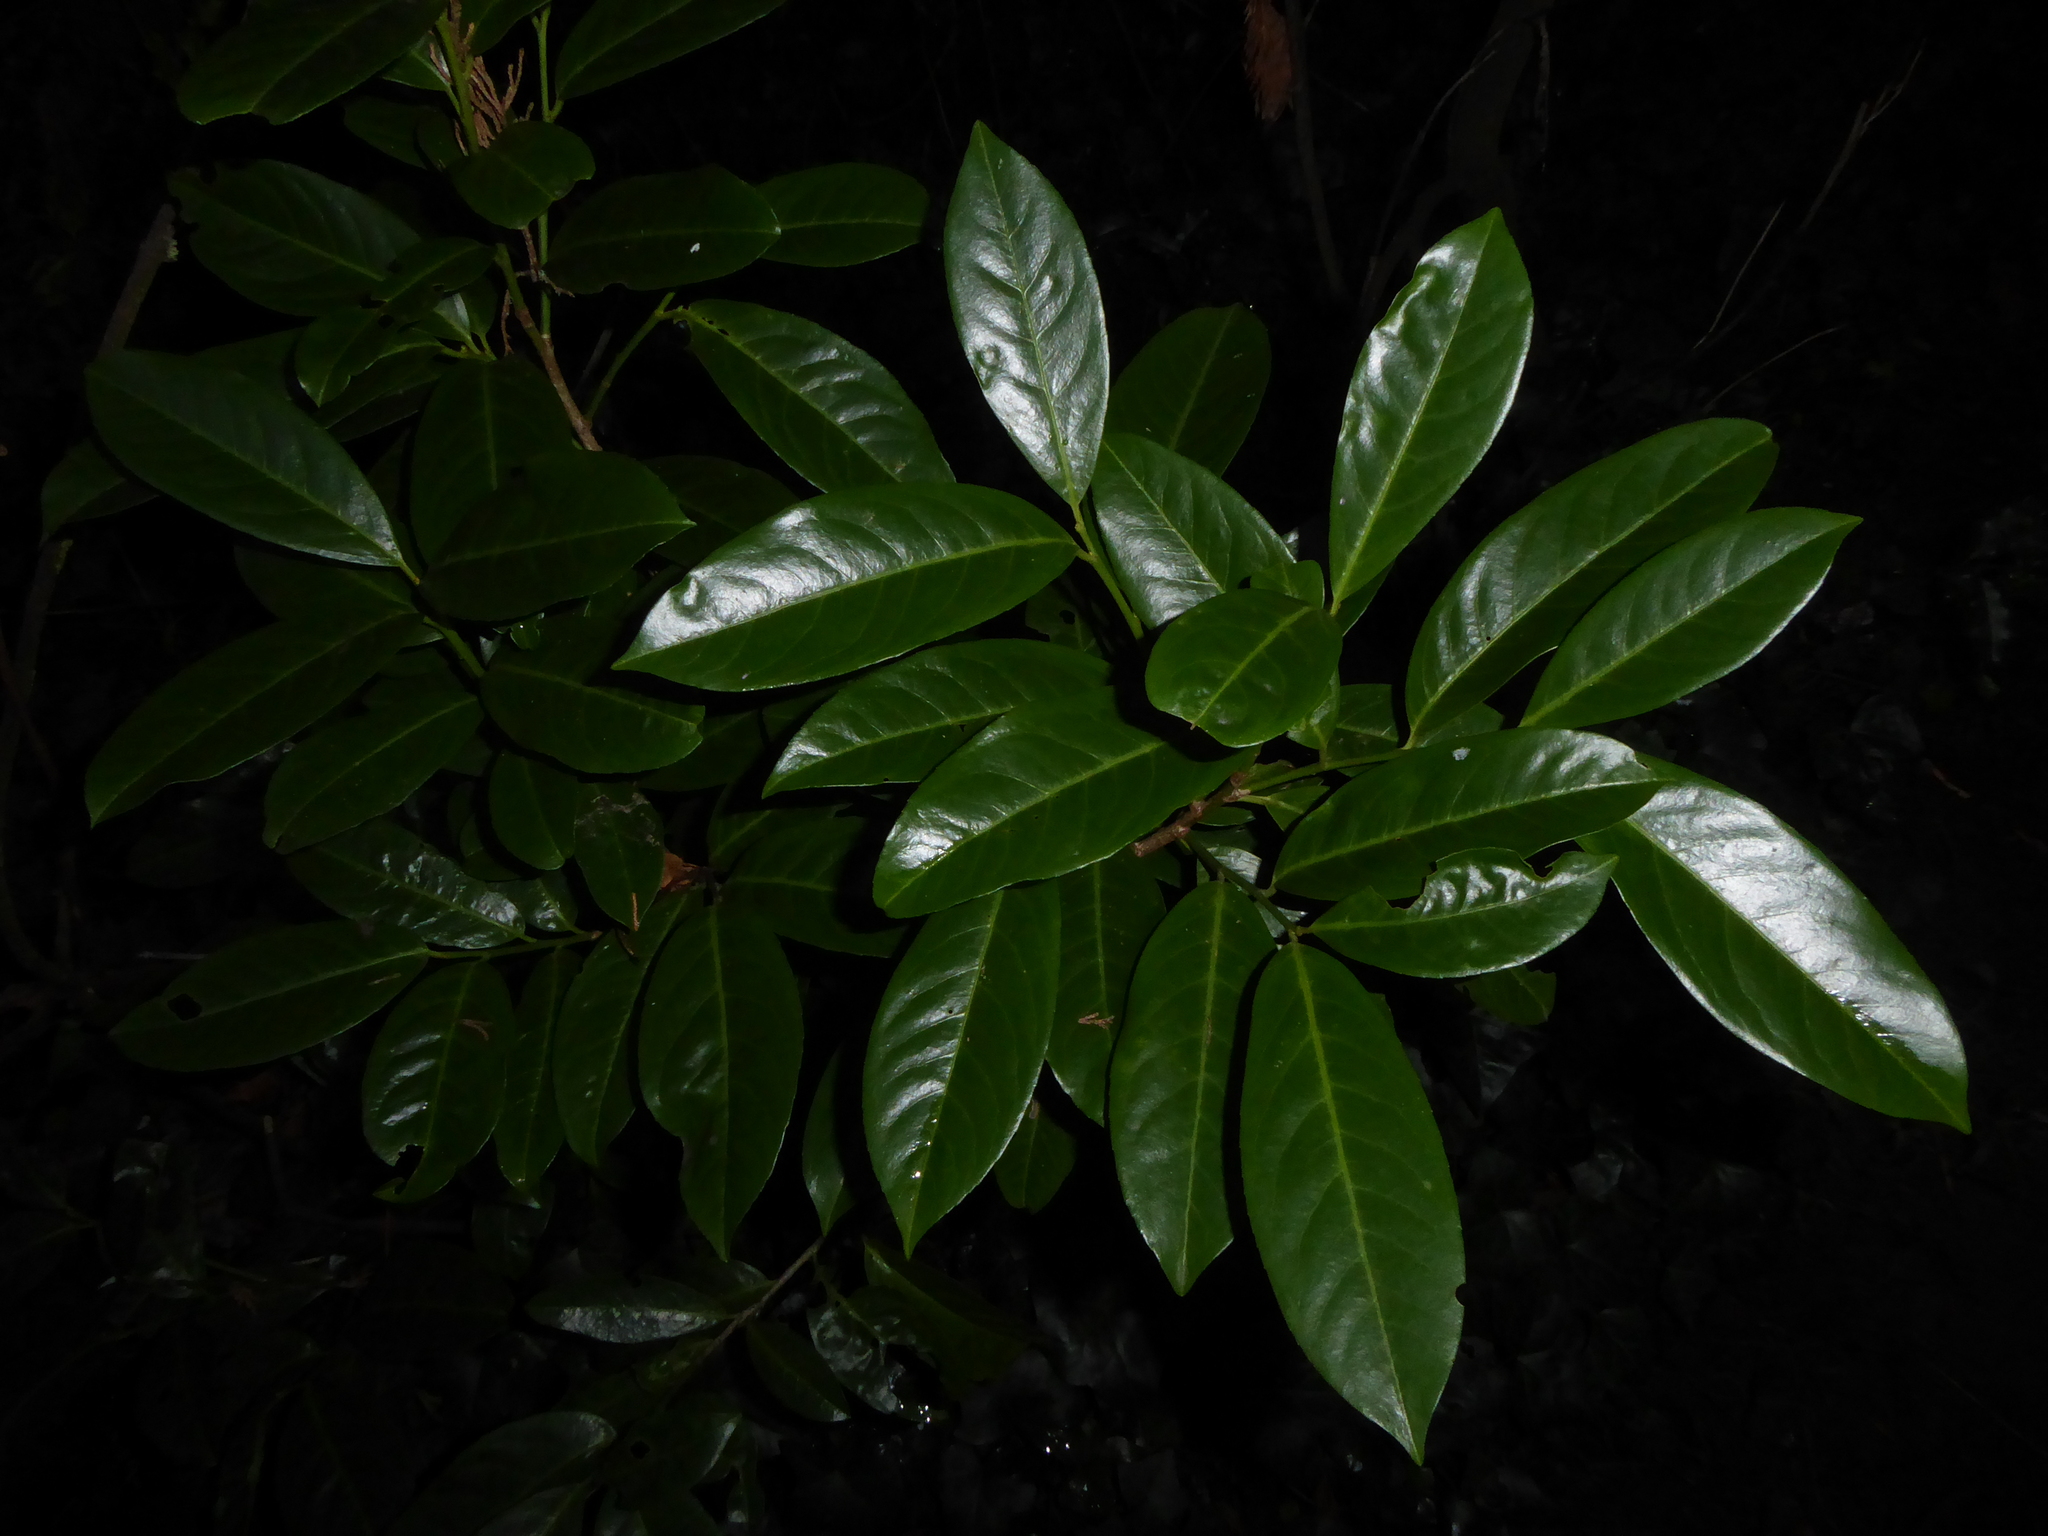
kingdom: Plantae
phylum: Tracheophyta
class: Magnoliopsida
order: Rosales
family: Rosaceae
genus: Prunus
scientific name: Prunus laurocerasus
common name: Cherry laurel
